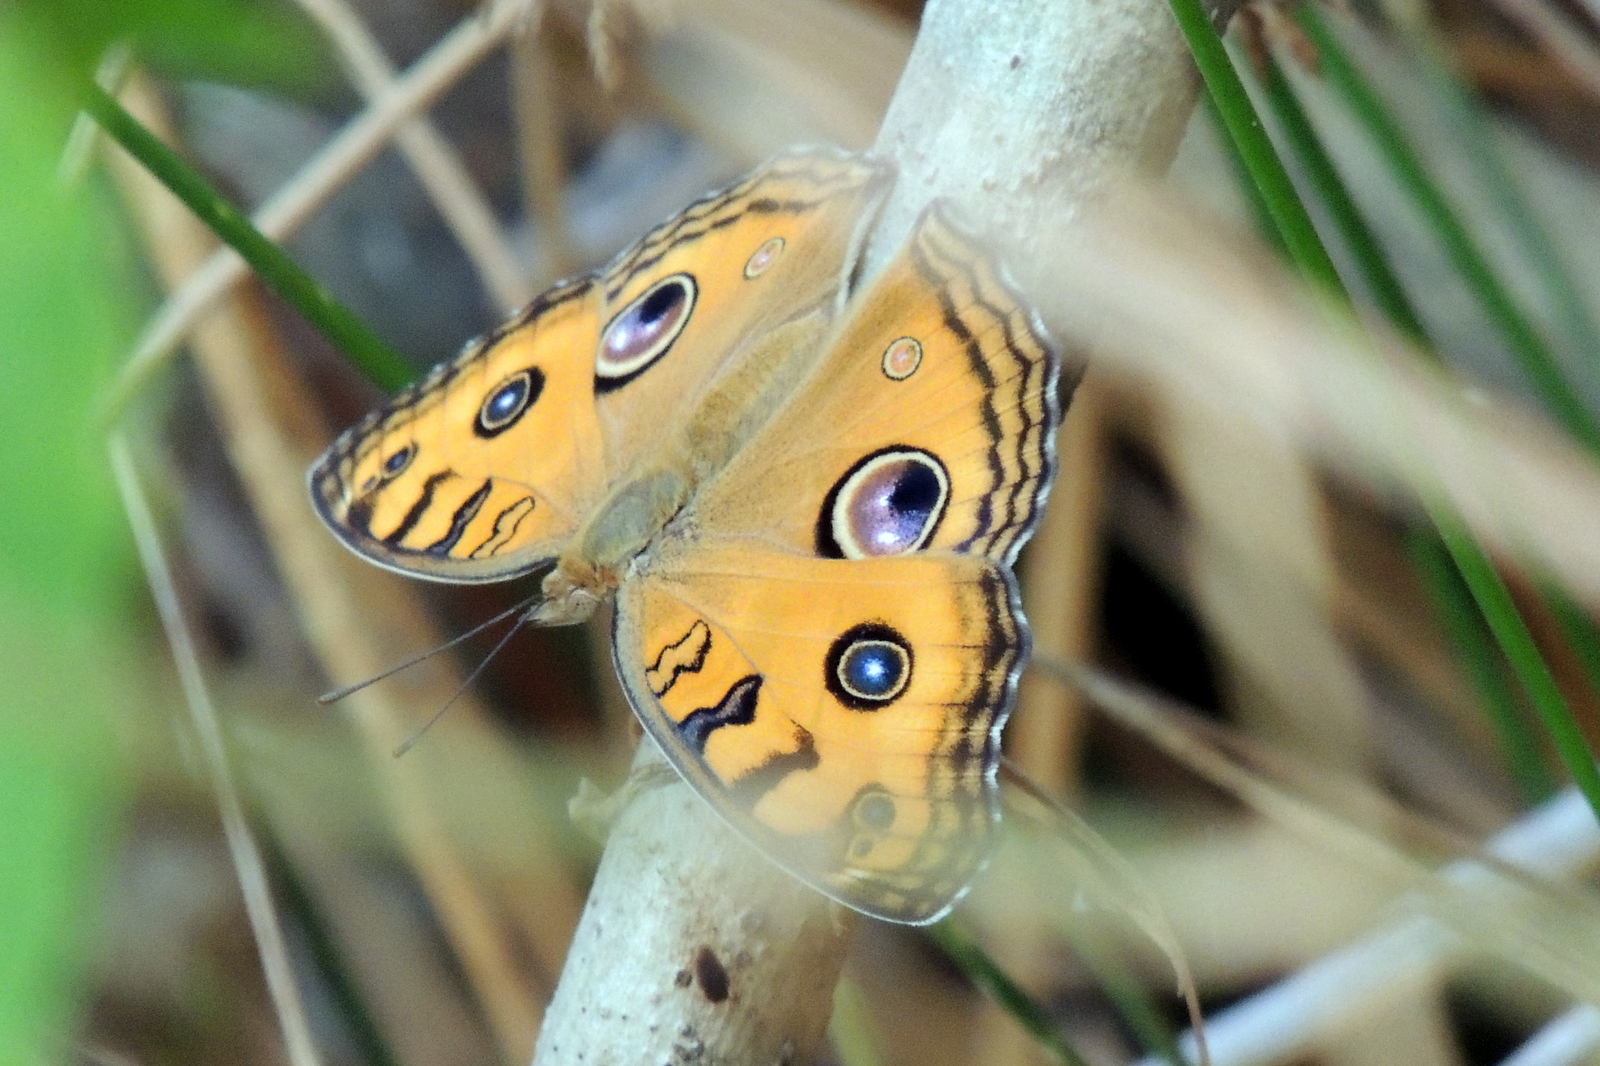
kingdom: Animalia
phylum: Arthropoda
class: Insecta
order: Lepidoptera
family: Nymphalidae
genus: Junonia
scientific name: Junonia almana
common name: Peacock pansy
